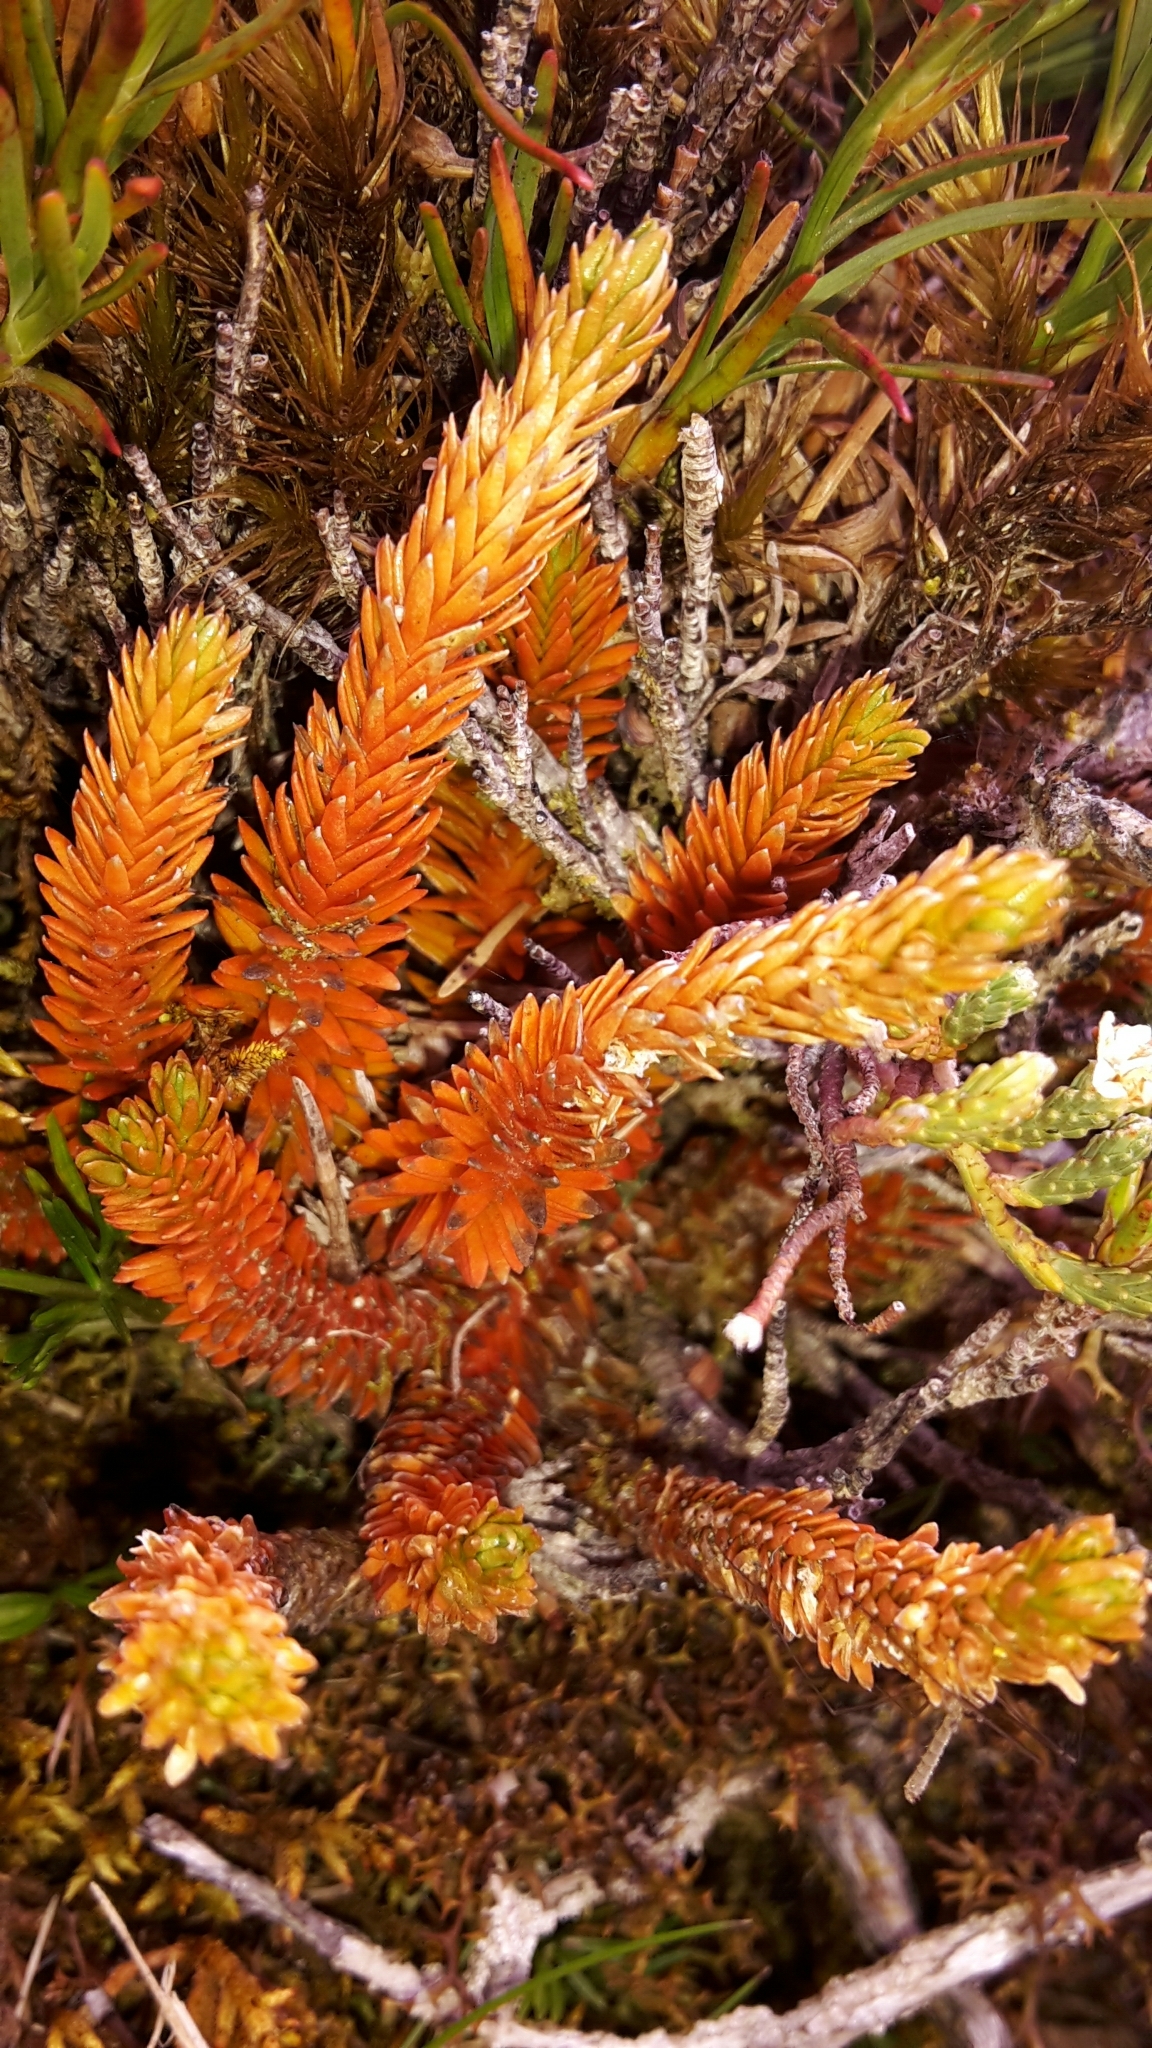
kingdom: Plantae
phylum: Tracheophyta
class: Lycopodiopsida
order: Lycopodiales
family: Lycopodiaceae
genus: Huperzia
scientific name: Huperzia australiana
